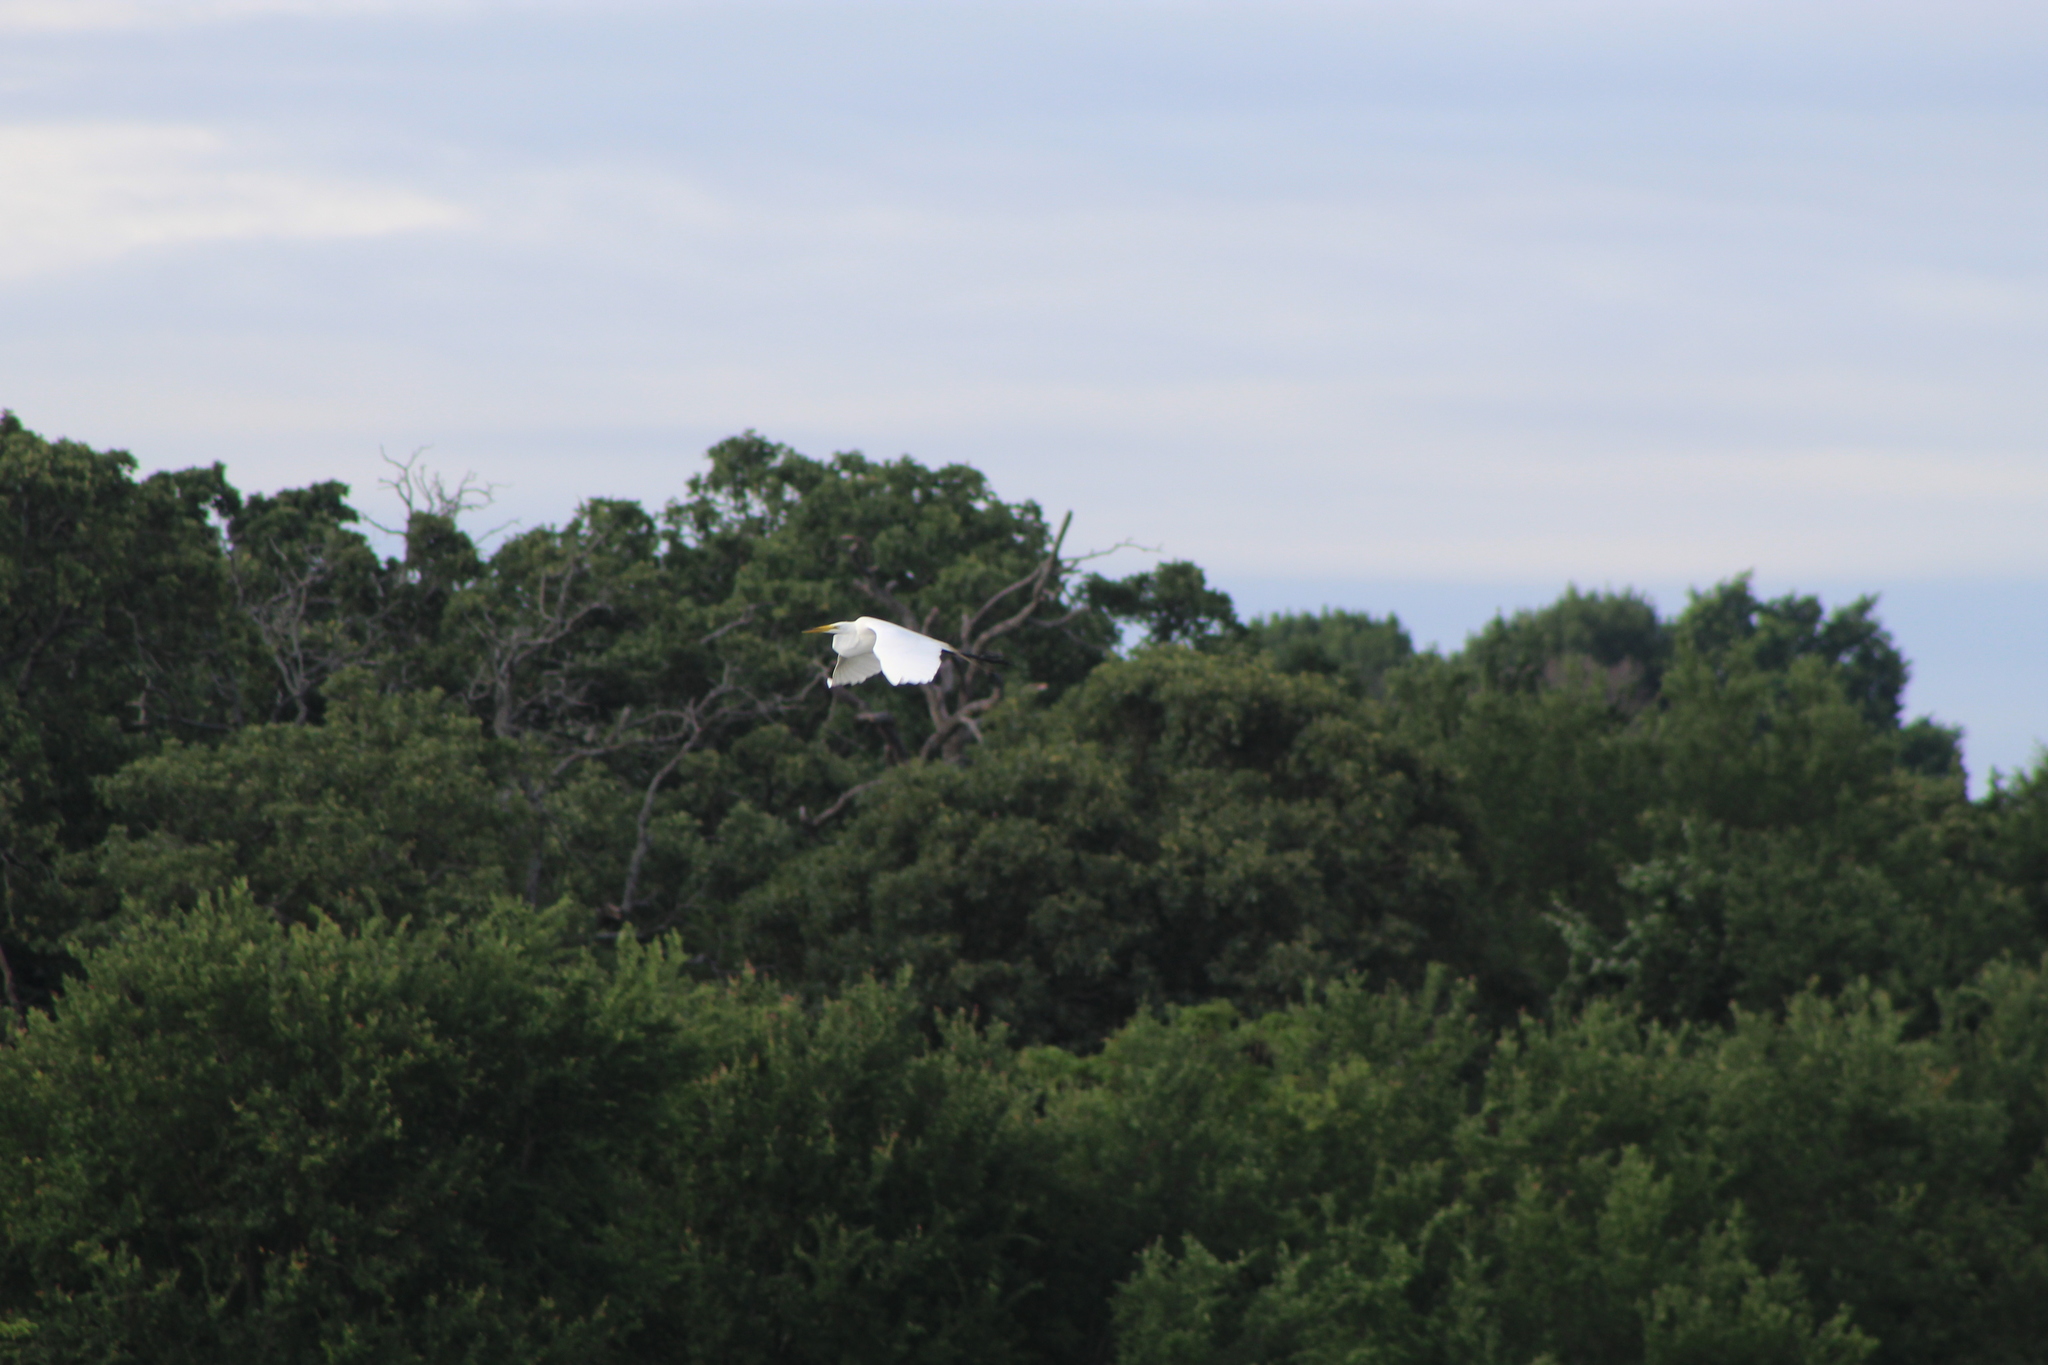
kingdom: Animalia
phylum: Chordata
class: Aves
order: Pelecaniformes
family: Ardeidae
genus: Ardea
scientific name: Ardea alba
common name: Great egret
